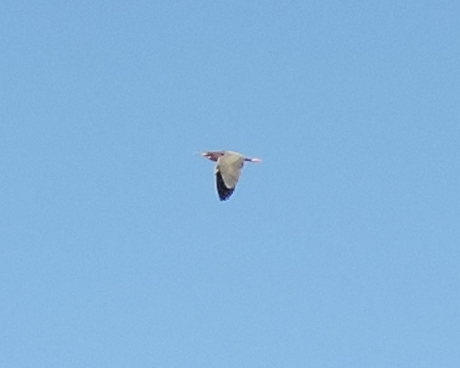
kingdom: Animalia
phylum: Chordata
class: Aves
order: Pelecaniformes
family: Ardeidae
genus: Butorides
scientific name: Butorides virescens
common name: Green heron
